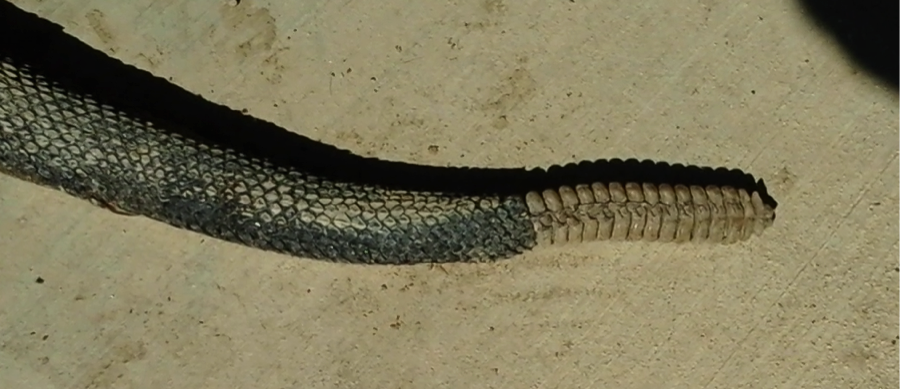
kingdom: Animalia
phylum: Chordata
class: Squamata
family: Viperidae
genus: Crotalus
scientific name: Crotalus horridus
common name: Timber rattlesnake
